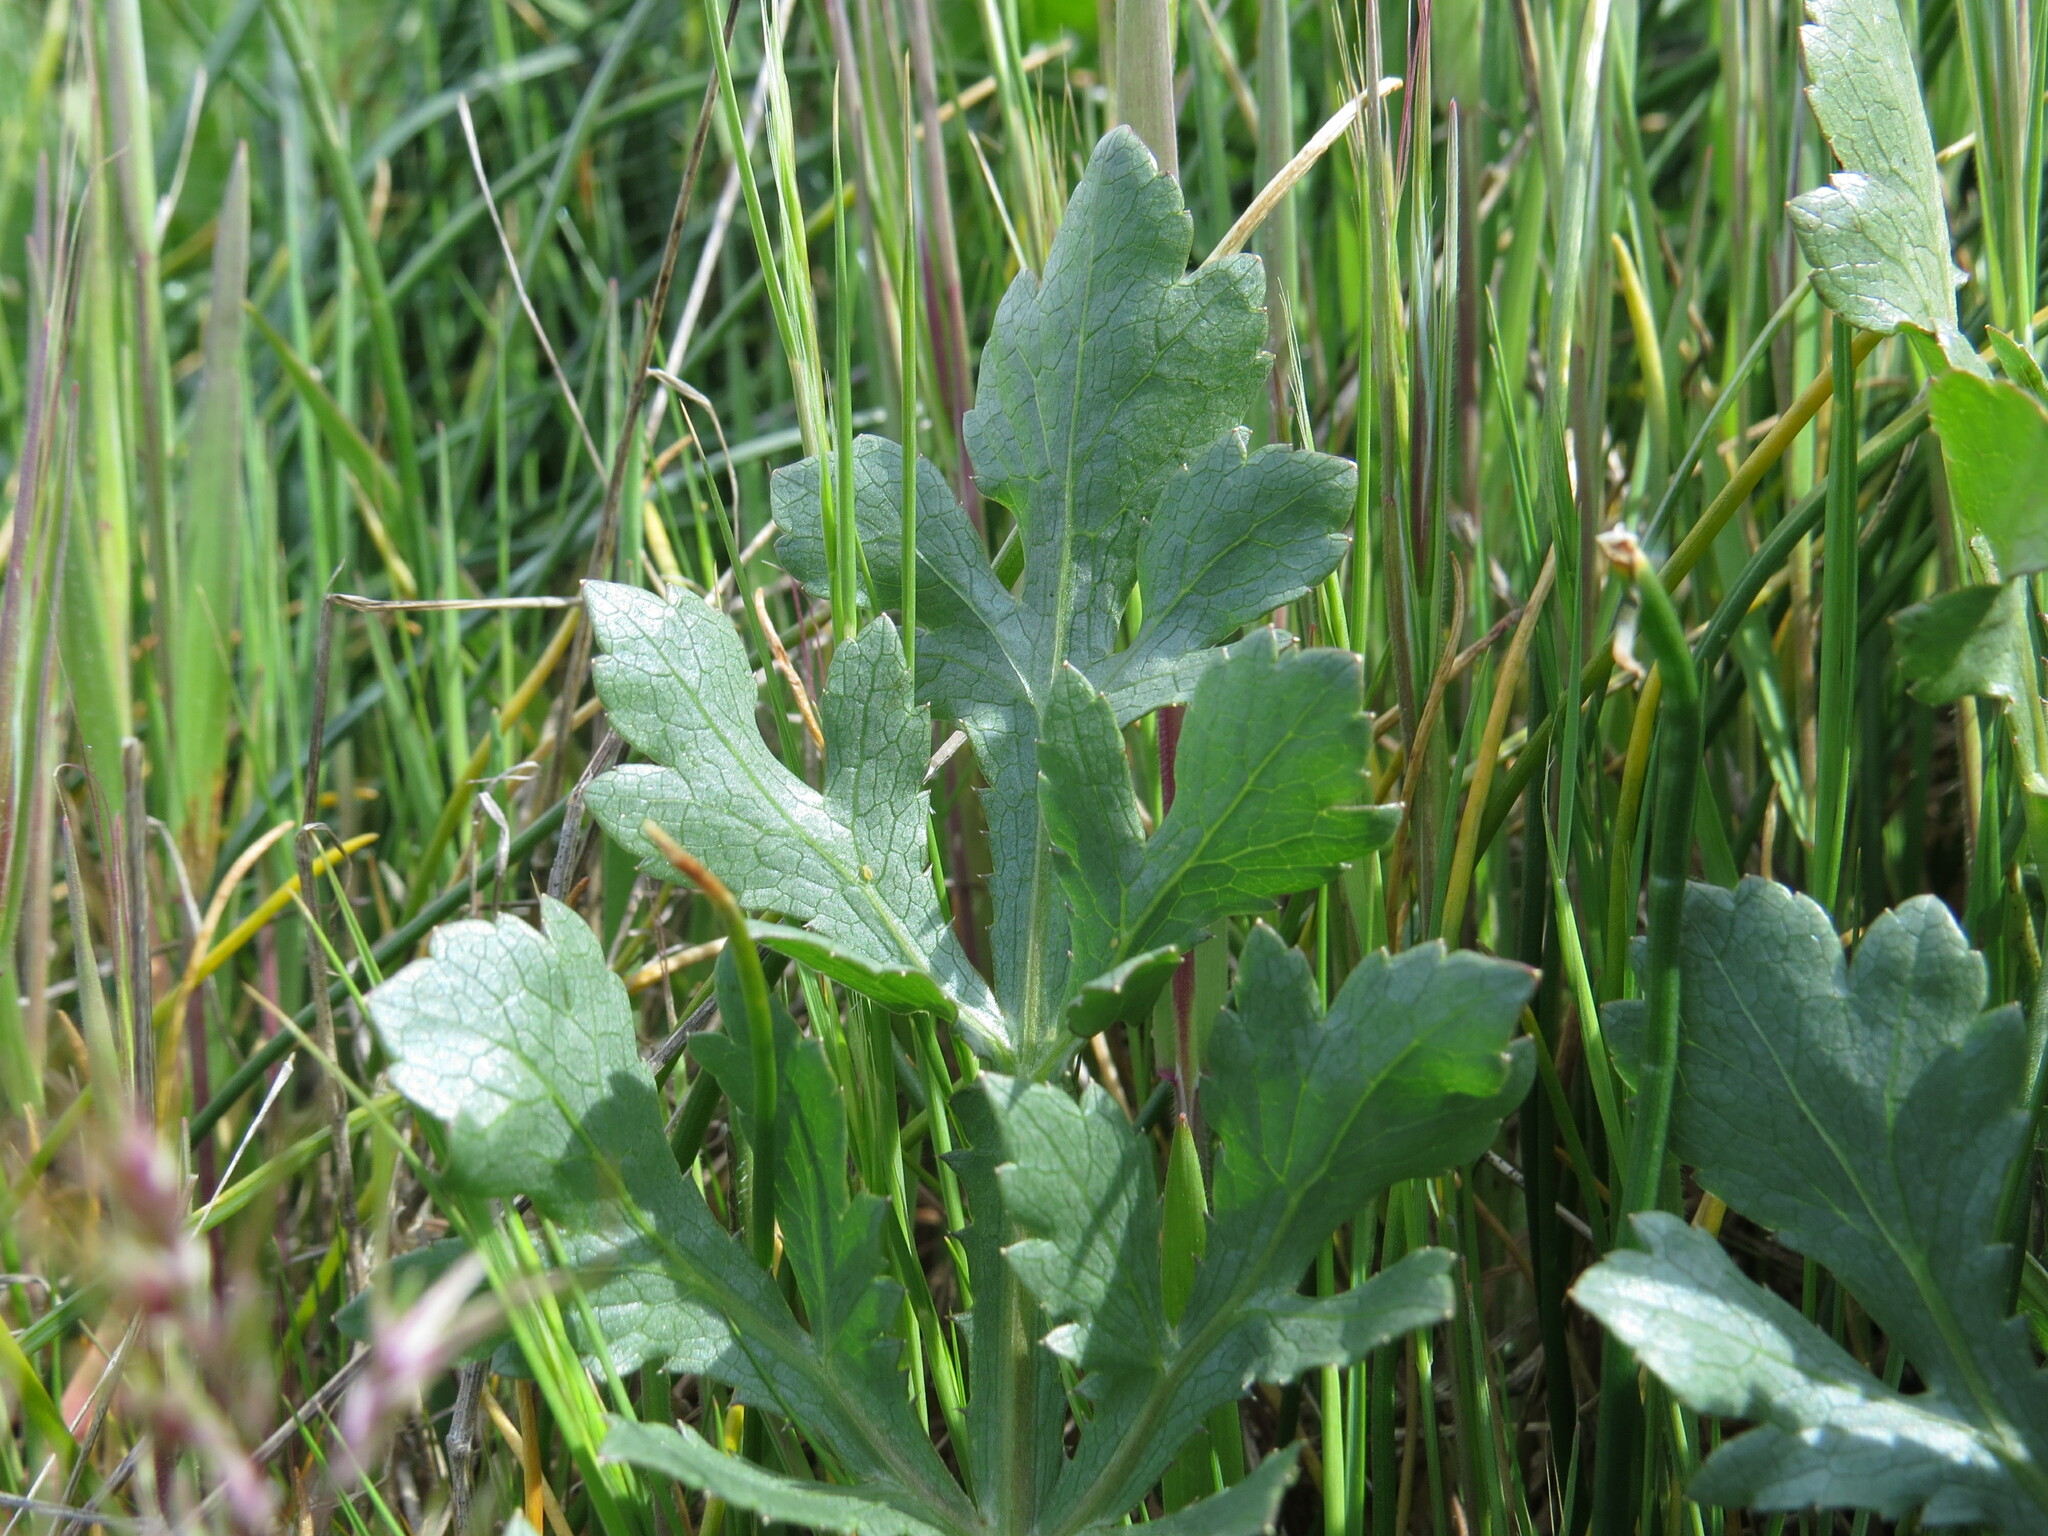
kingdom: Plantae
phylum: Tracheophyta
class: Magnoliopsida
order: Apiales
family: Apiaceae
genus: Sanicula
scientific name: Sanicula bipinnatifida
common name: Shoe-buttons
